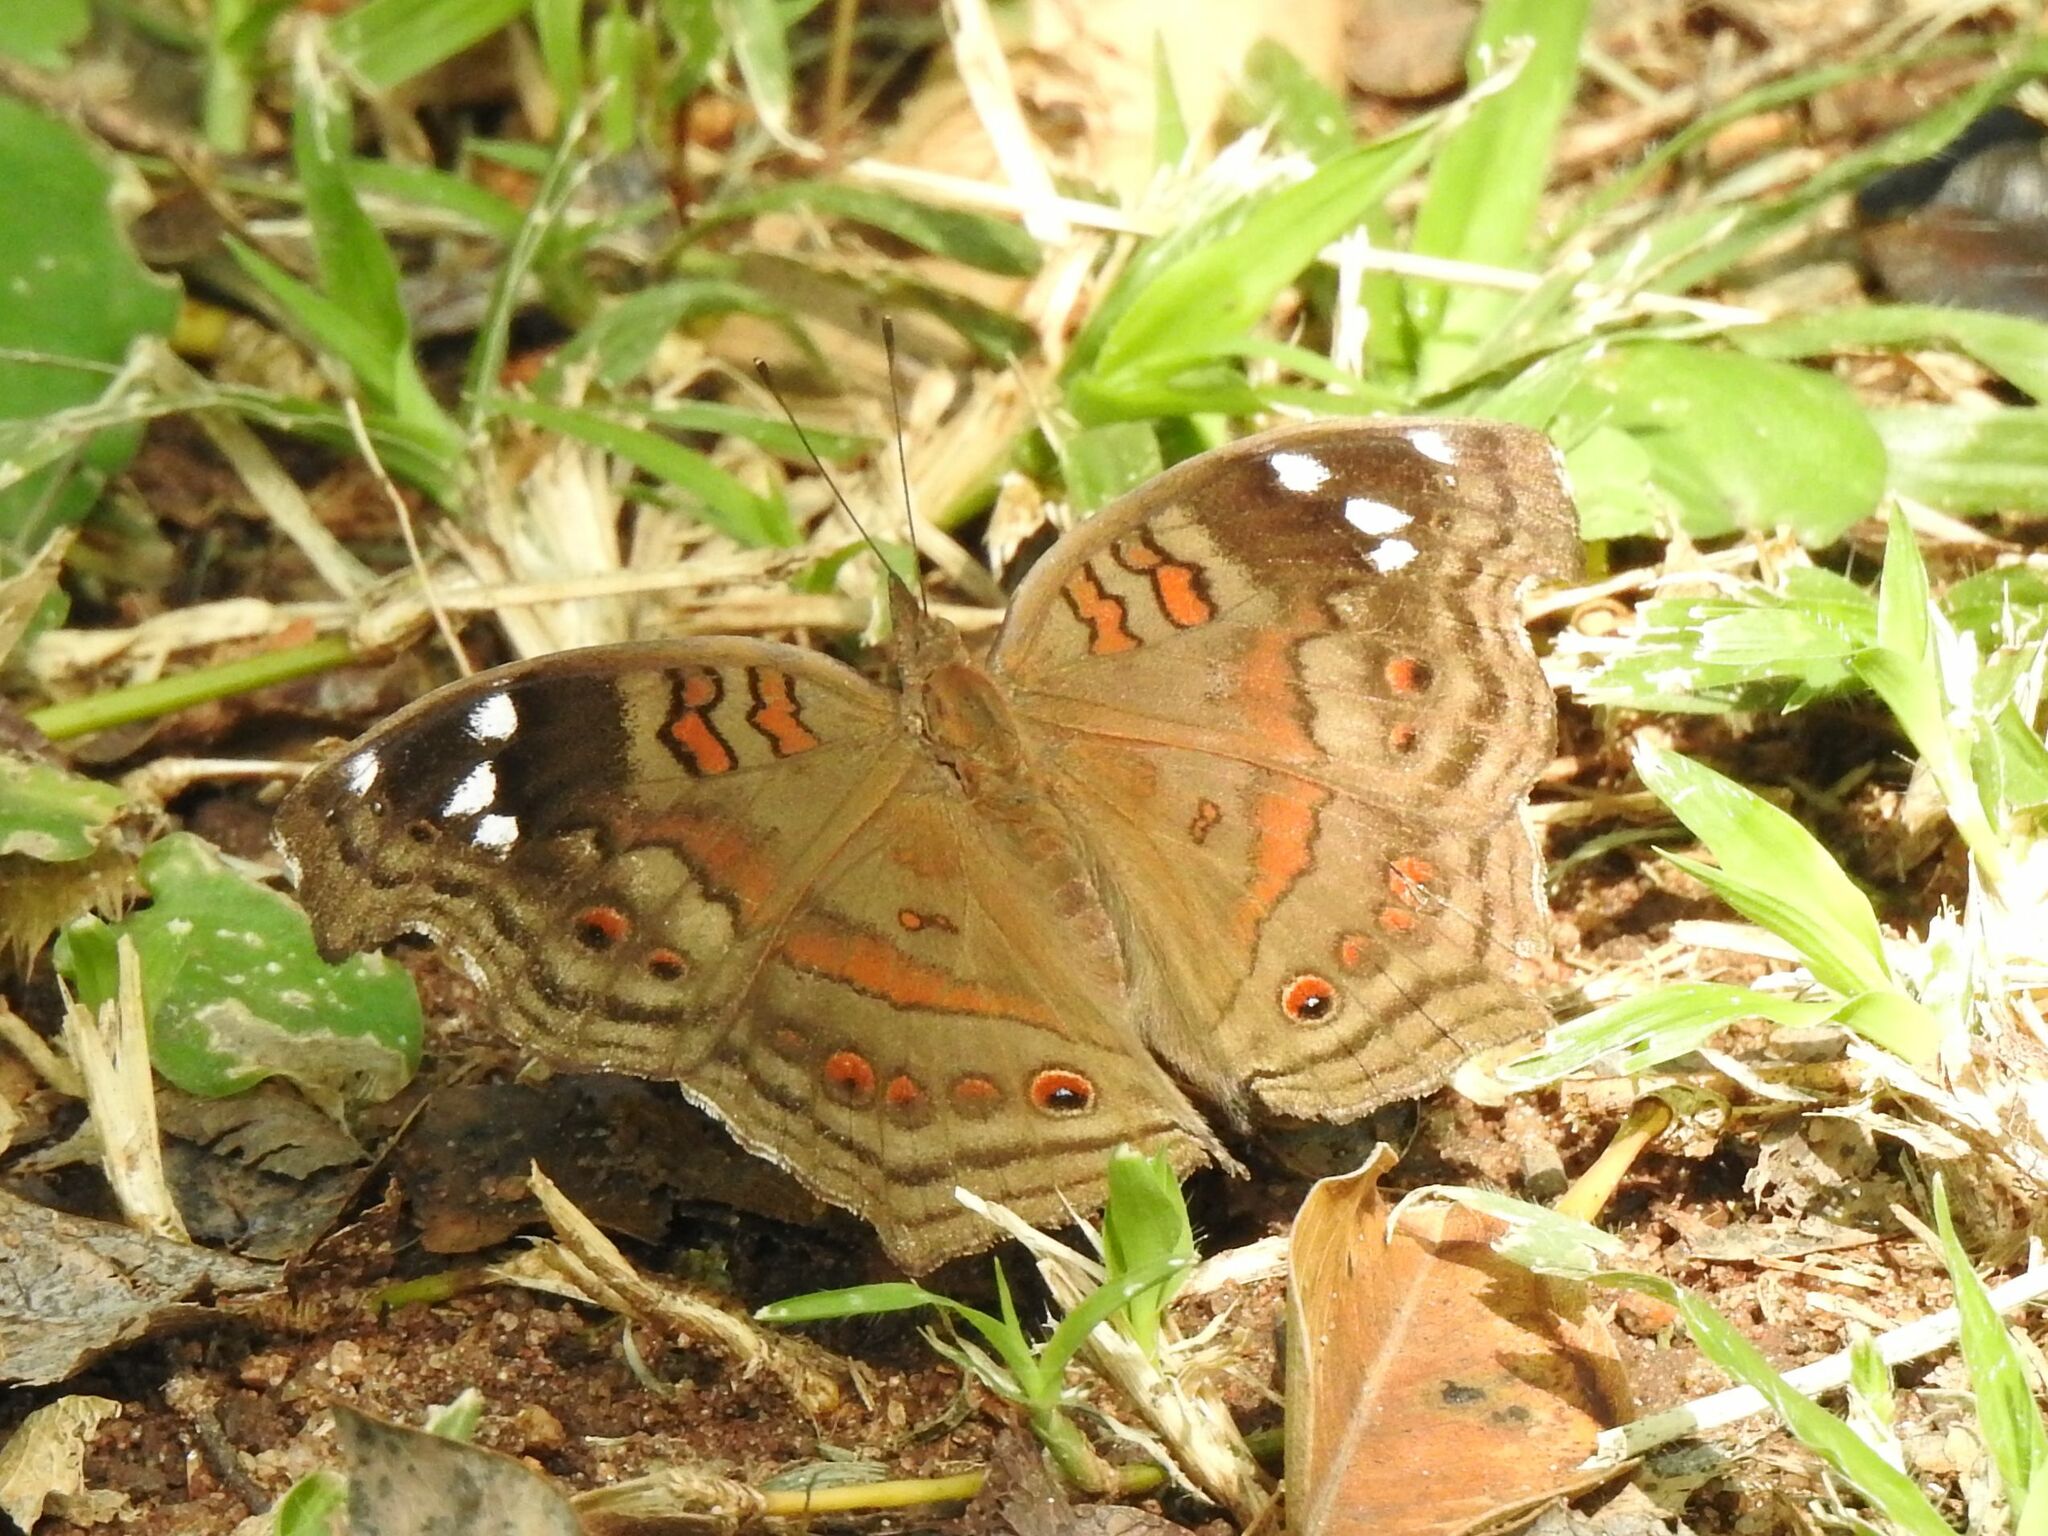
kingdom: Animalia
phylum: Arthropoda
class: Insecta
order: Lepidoptera
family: Nymphalidae
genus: Junonia
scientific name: Junonia natalica
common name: Brown pansy
